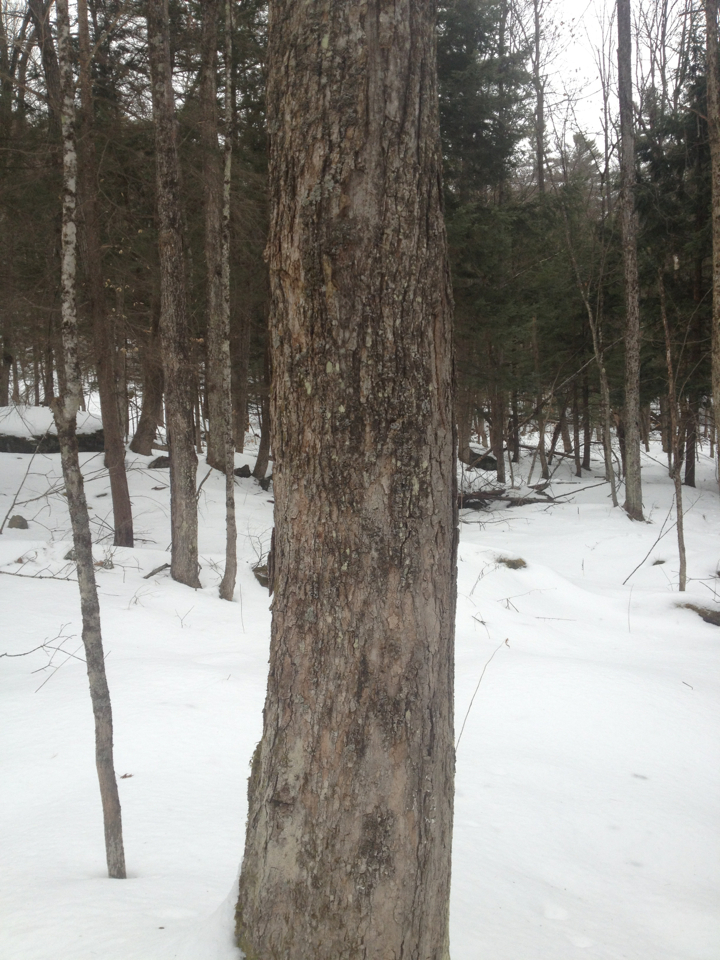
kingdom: Plantae
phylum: Tracheophyta
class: Magnoliopsida
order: Sapindales
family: Sapindaceae
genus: Acer
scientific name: Acer saccharum
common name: Sugar maple
